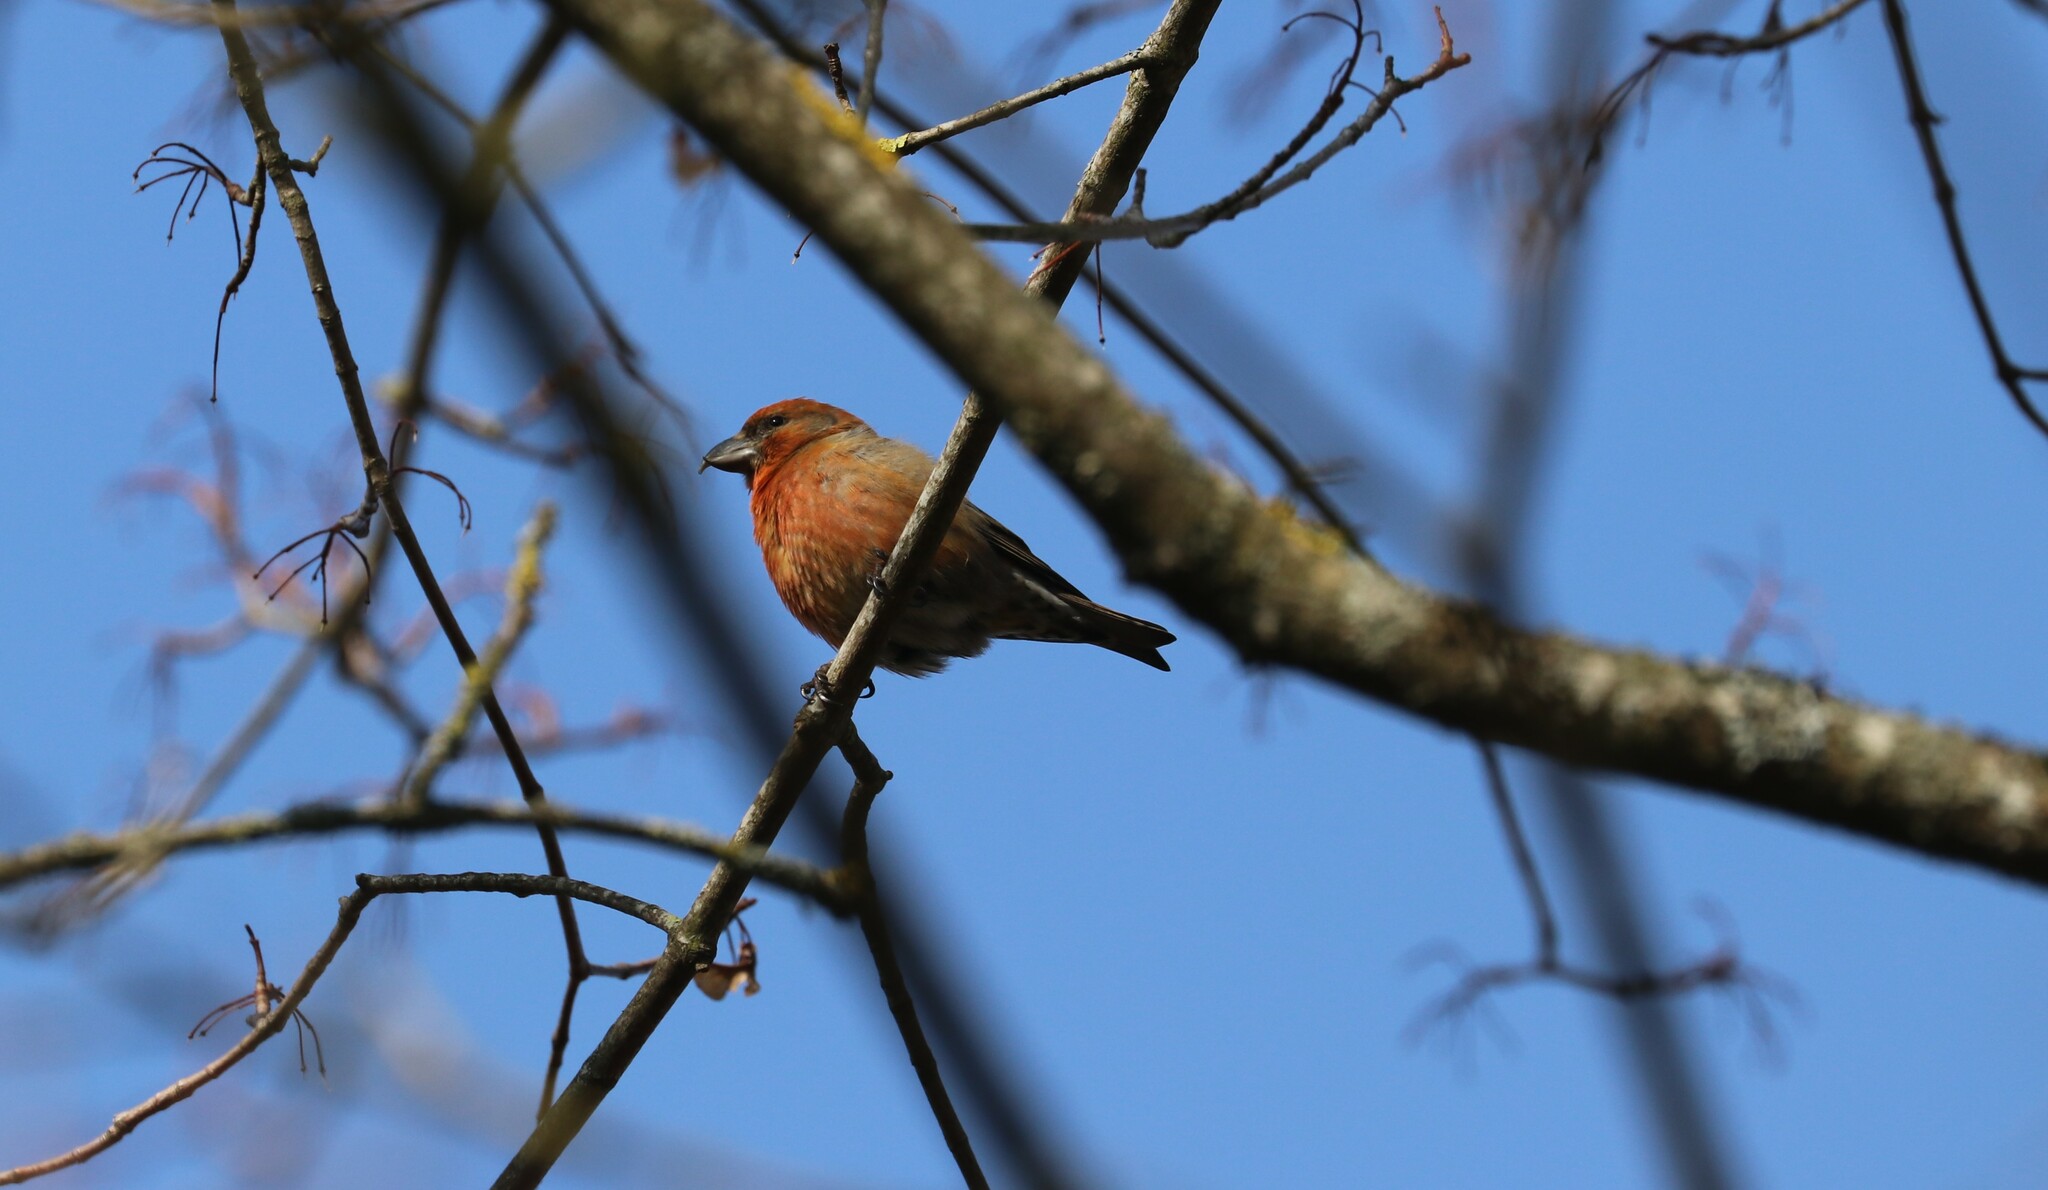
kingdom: Animalia
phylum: Chordata
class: Aves
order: Passeriformes
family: Fringillidae
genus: Loxia
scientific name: Loxia curvirostra
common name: Red crossbill
